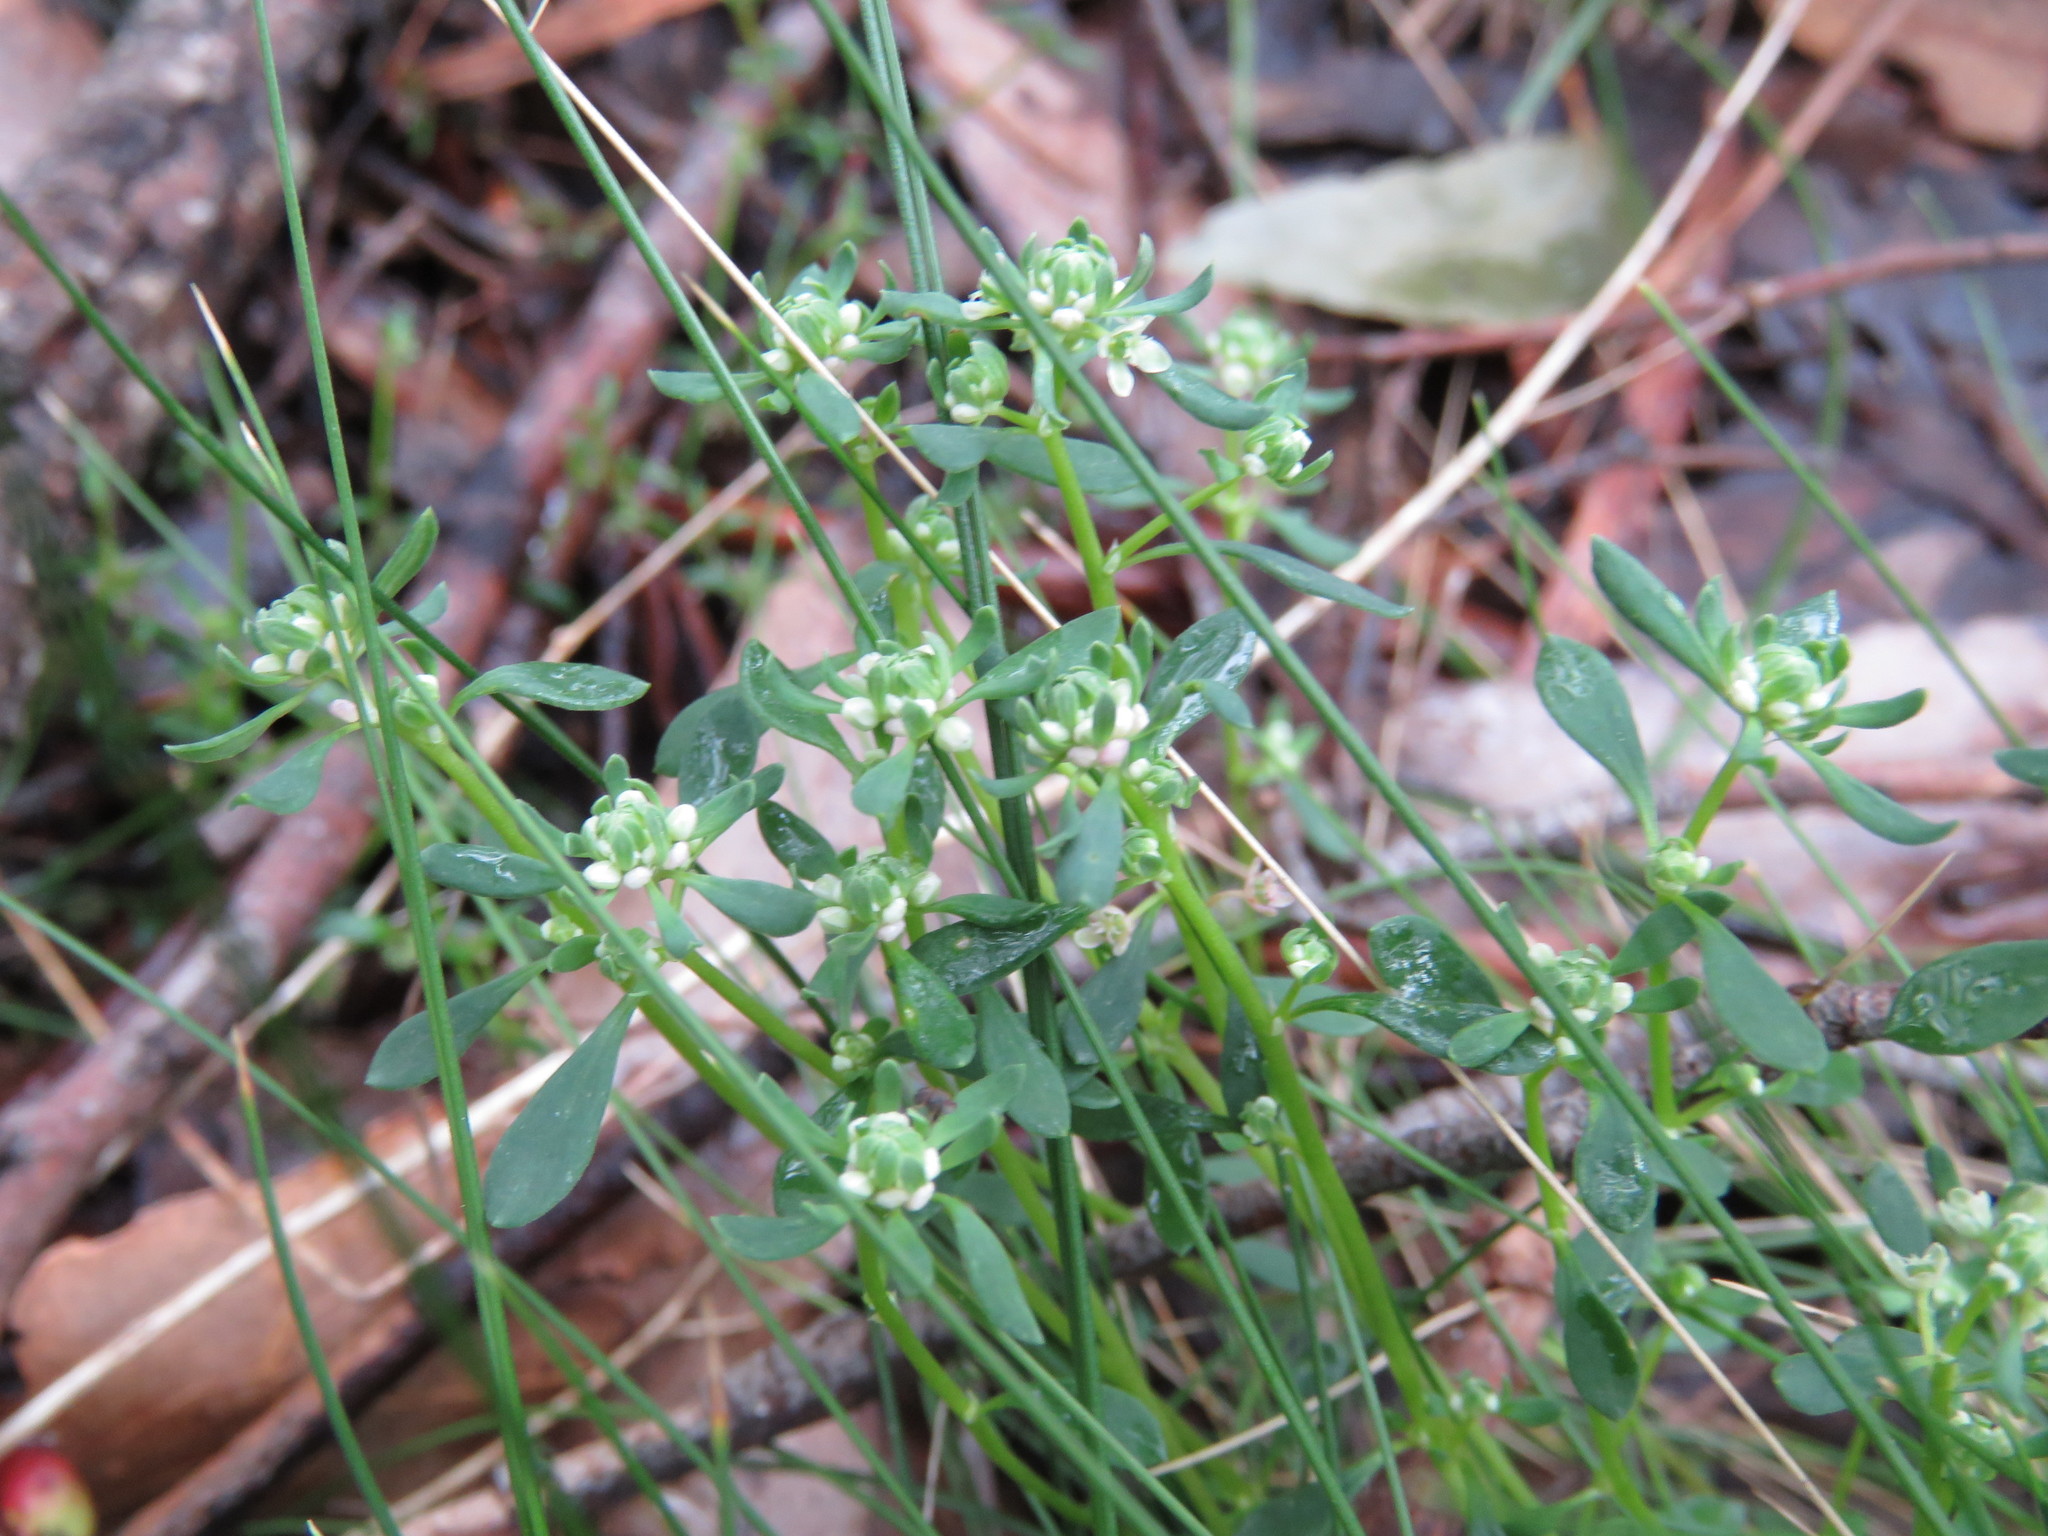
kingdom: Plantae
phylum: Tracheophyta
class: Magnoliopsida
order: Malpighiales
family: Phyllanthaceae
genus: Poranthera
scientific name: Poranthera microphylla
